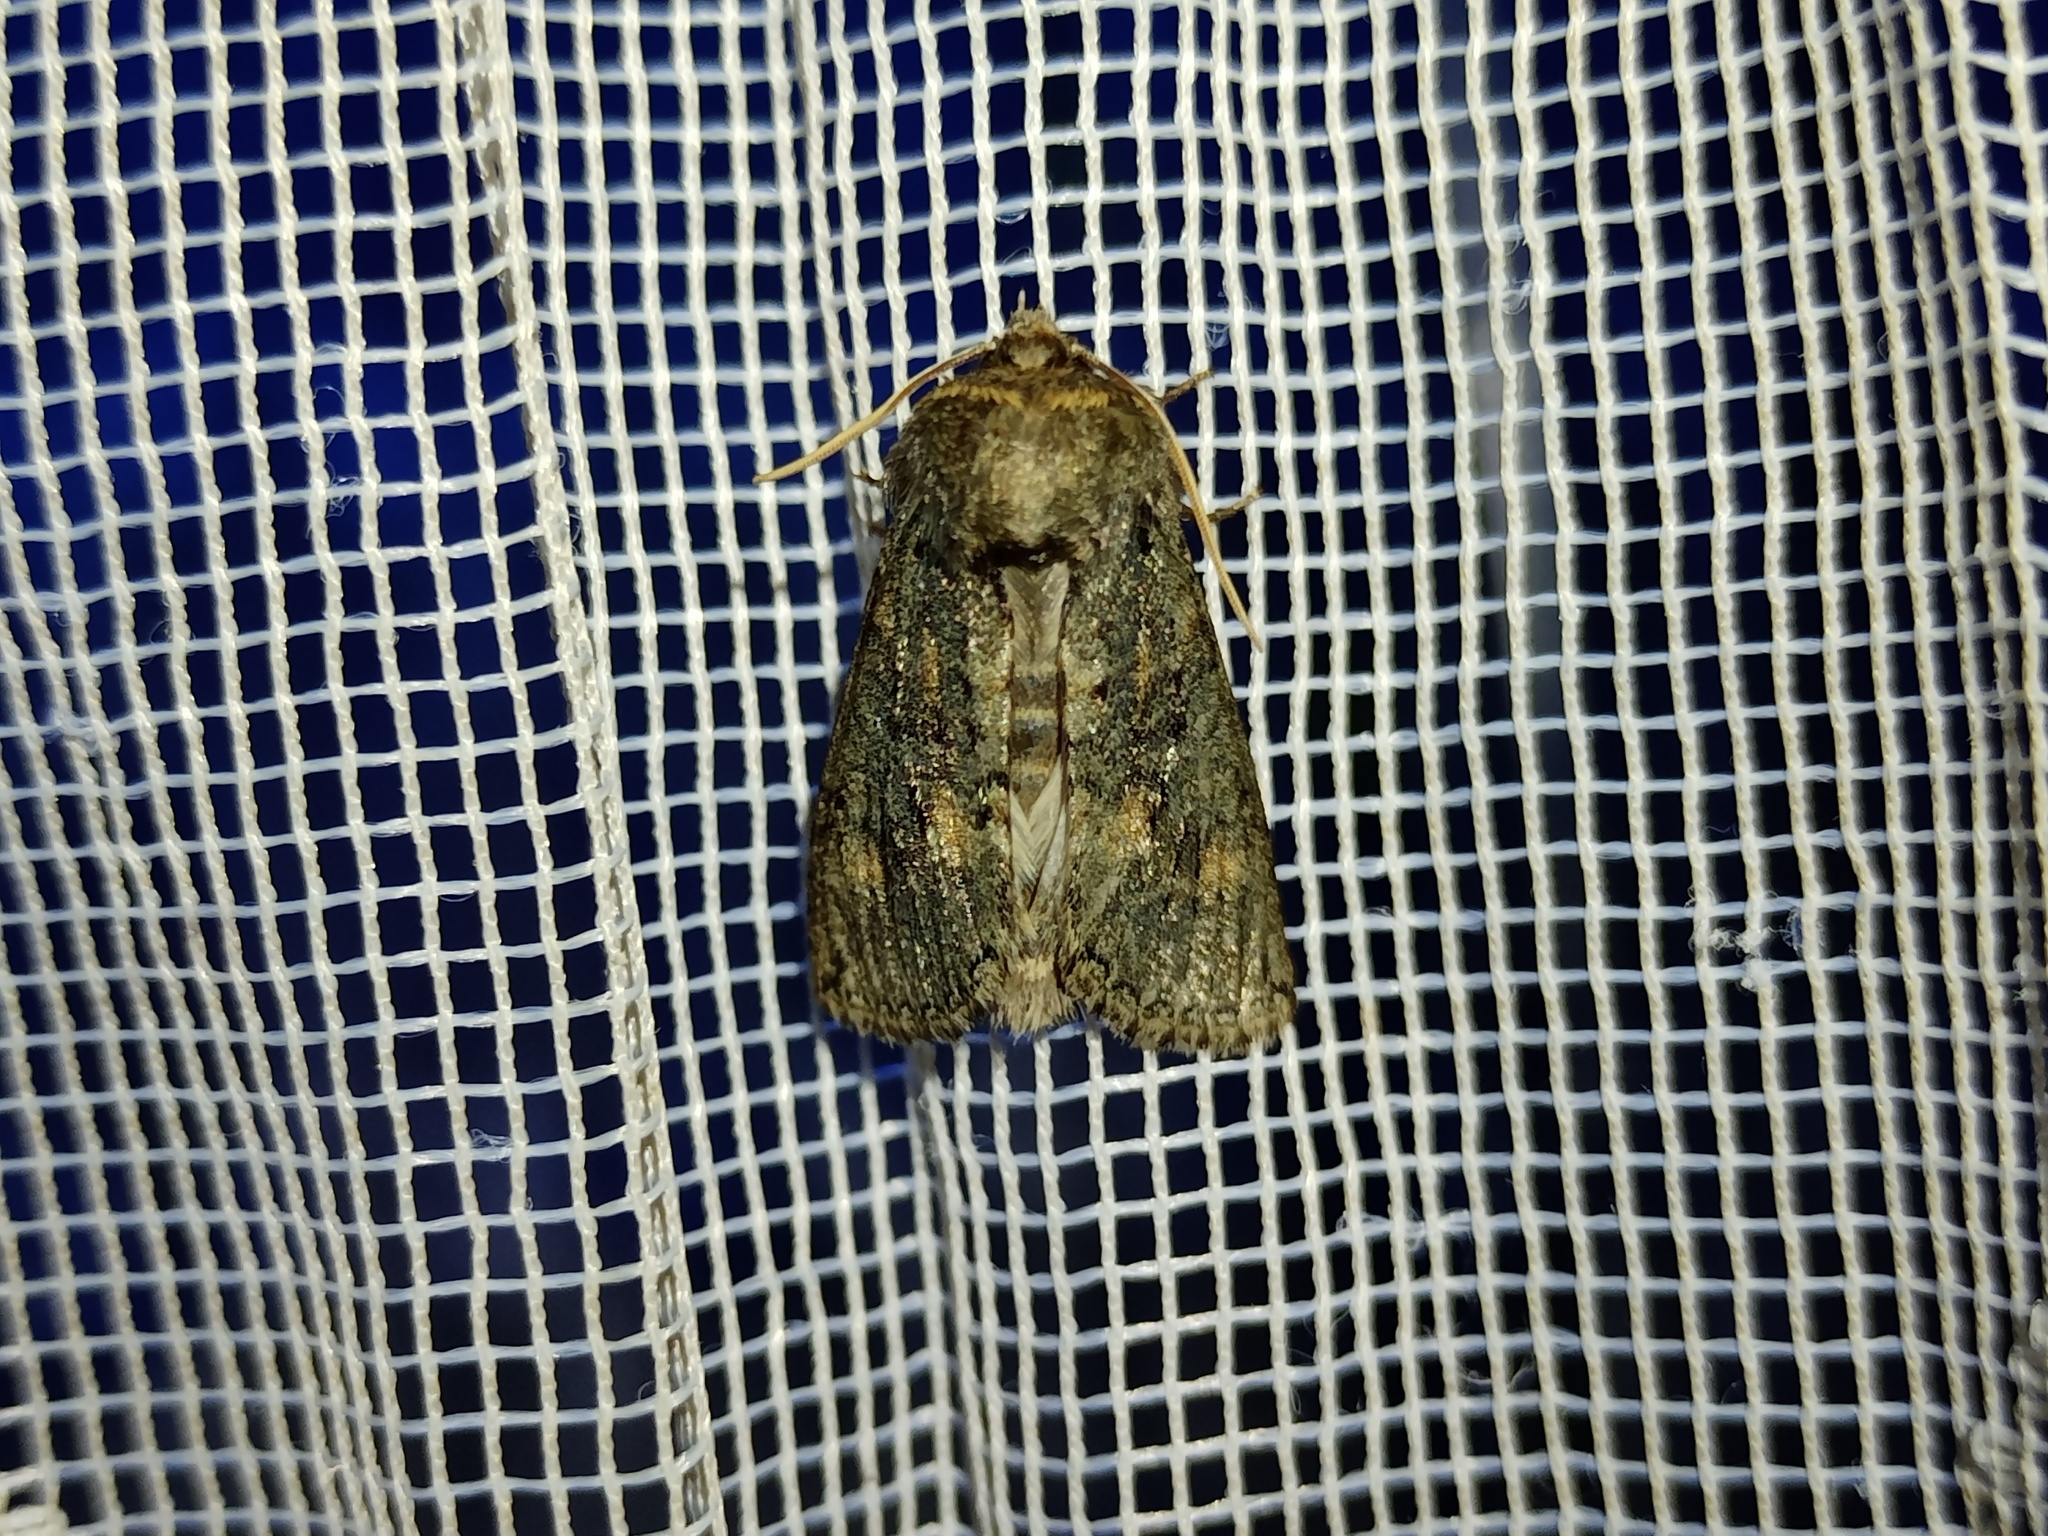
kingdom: Animalia
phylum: Arthropoda
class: Insecta
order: Lepidoptera
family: Drepanidae
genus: Polyploca
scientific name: Polyploca ridens
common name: Frosted green
